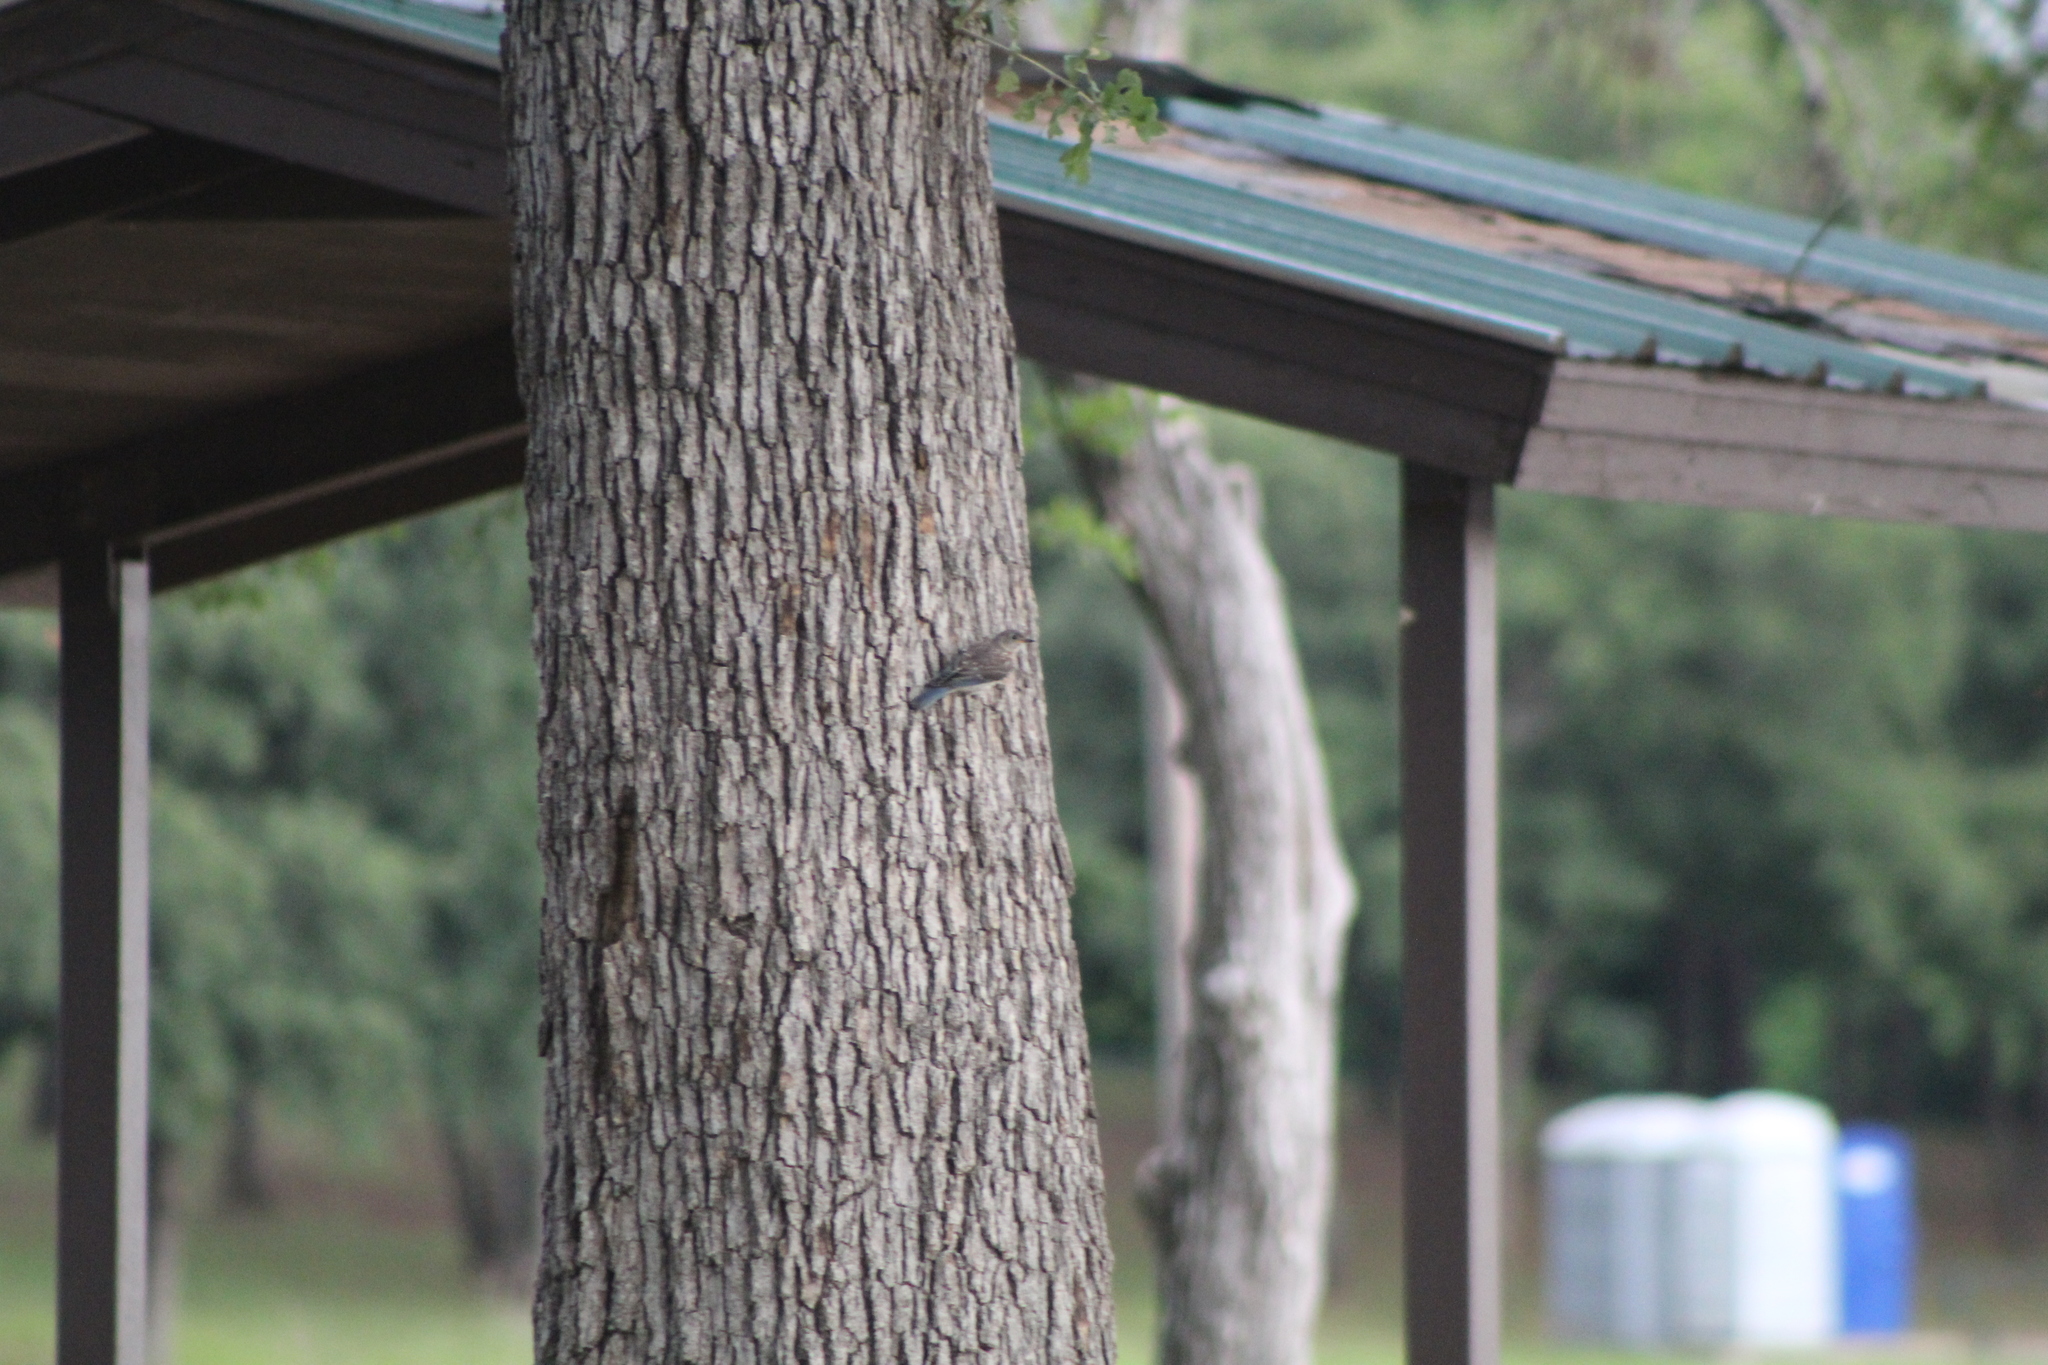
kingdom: Animalia
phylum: Chordata
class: Aves
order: Passeriformes
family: Turdidae
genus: Sialia
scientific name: Sialia sialis
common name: Eastern bluebird
